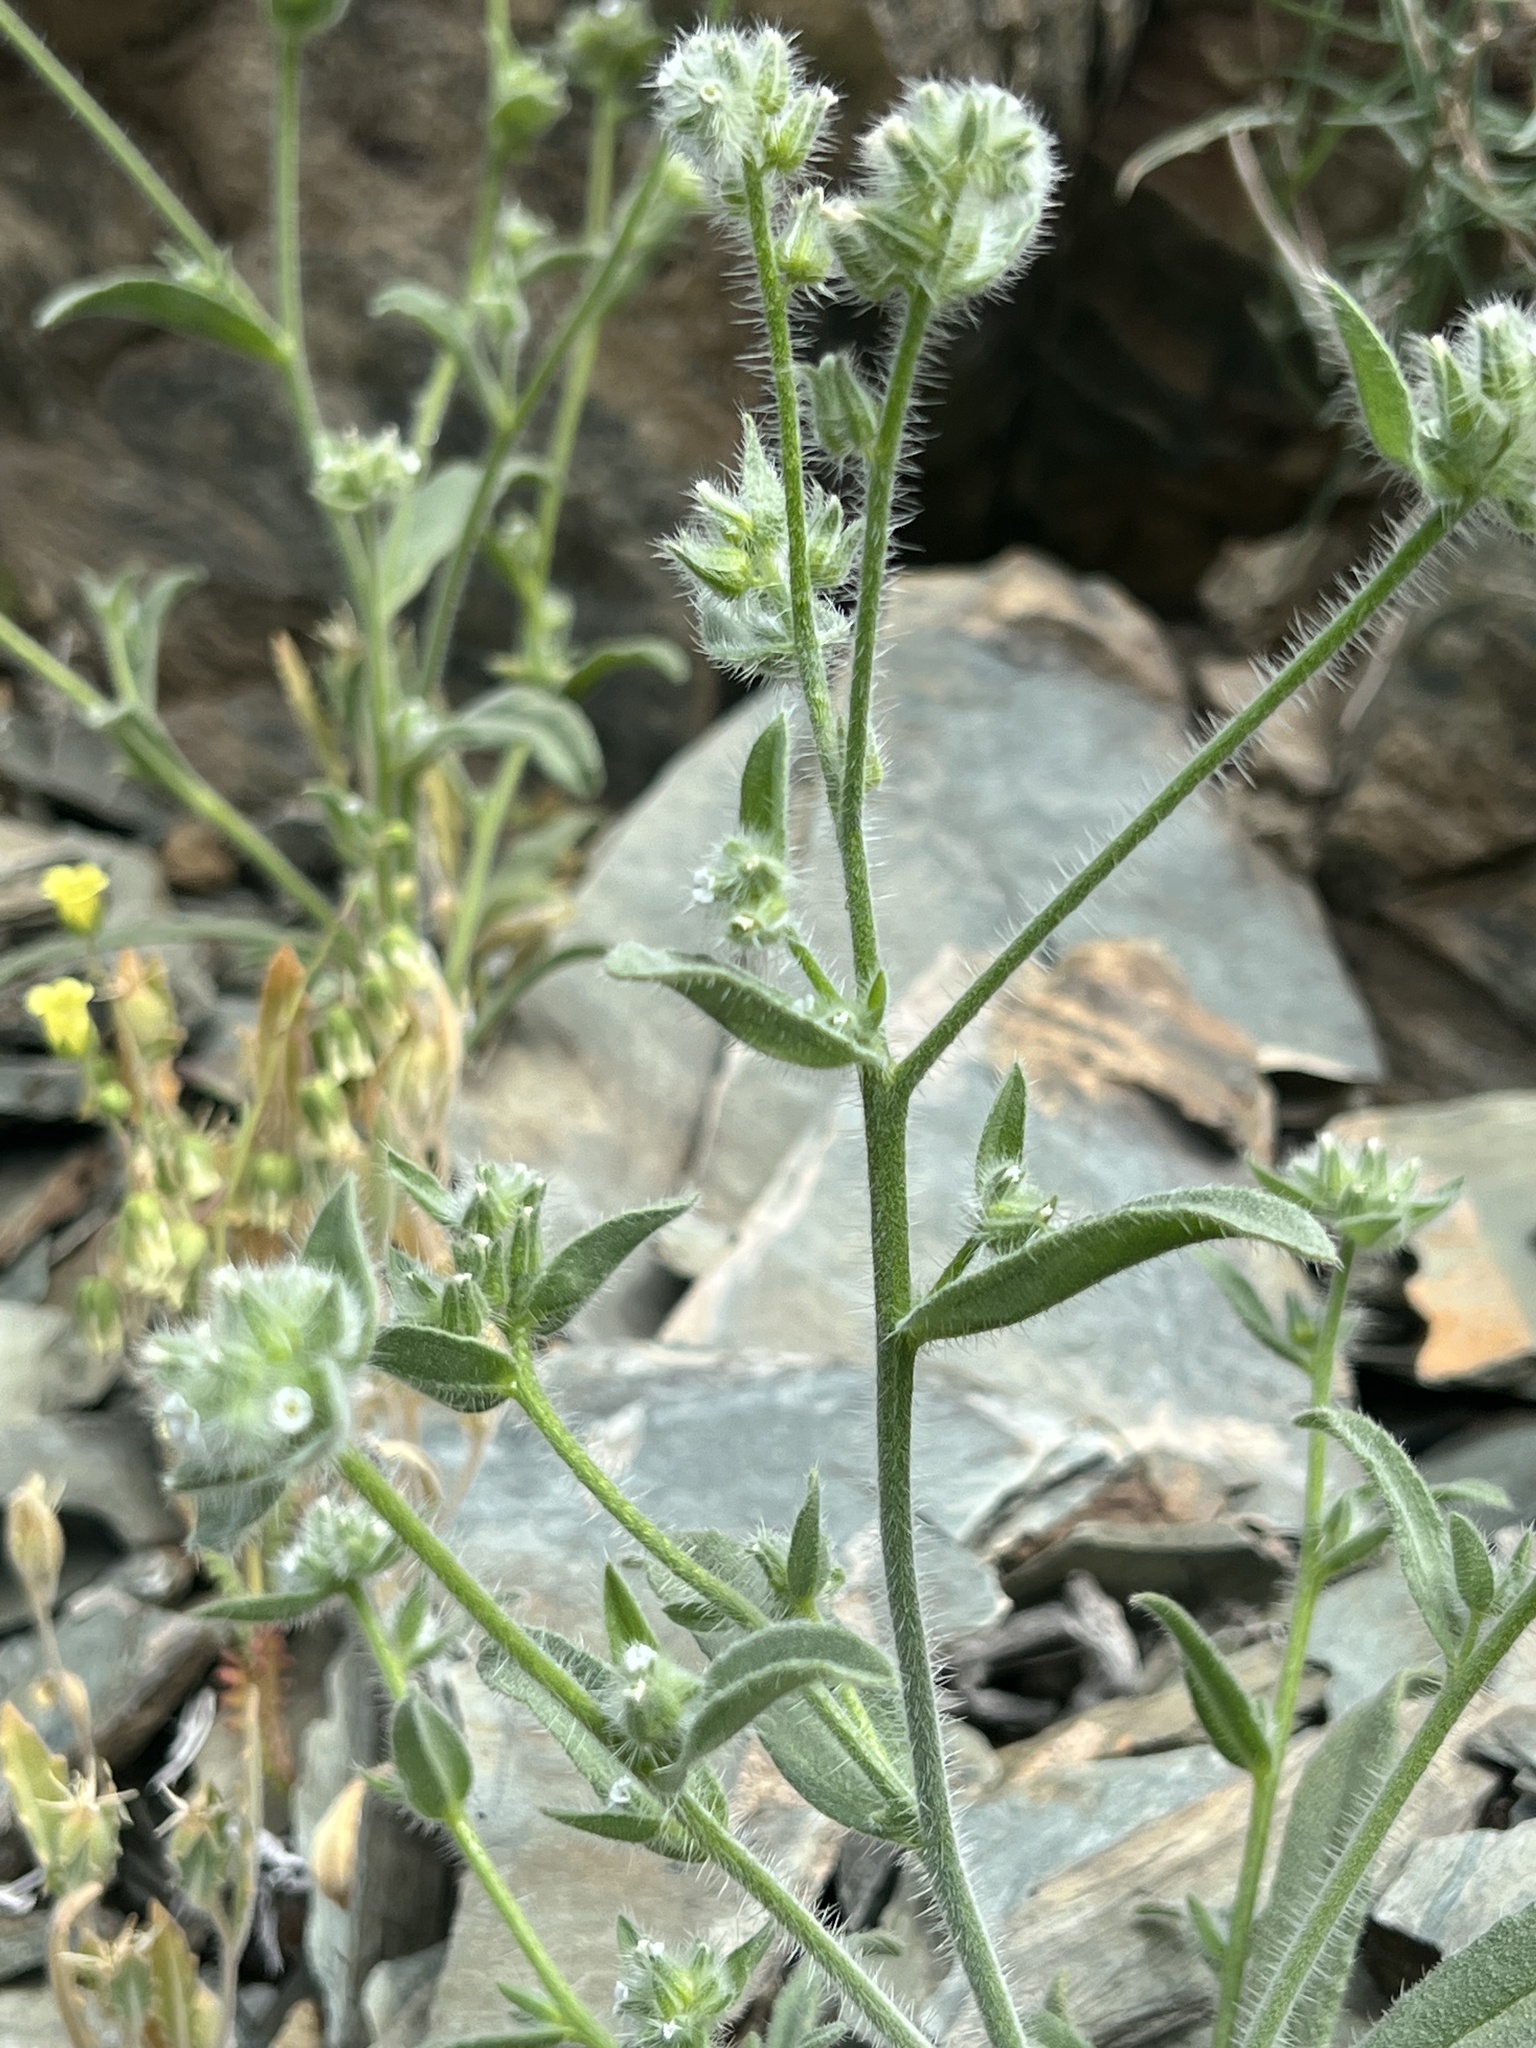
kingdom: Plantae
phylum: Tracheophyta
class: Magnoliopsida
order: Boraginales
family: Boraginaceae
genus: Simpsonanthus
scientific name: Simpsonanthus jonesii
